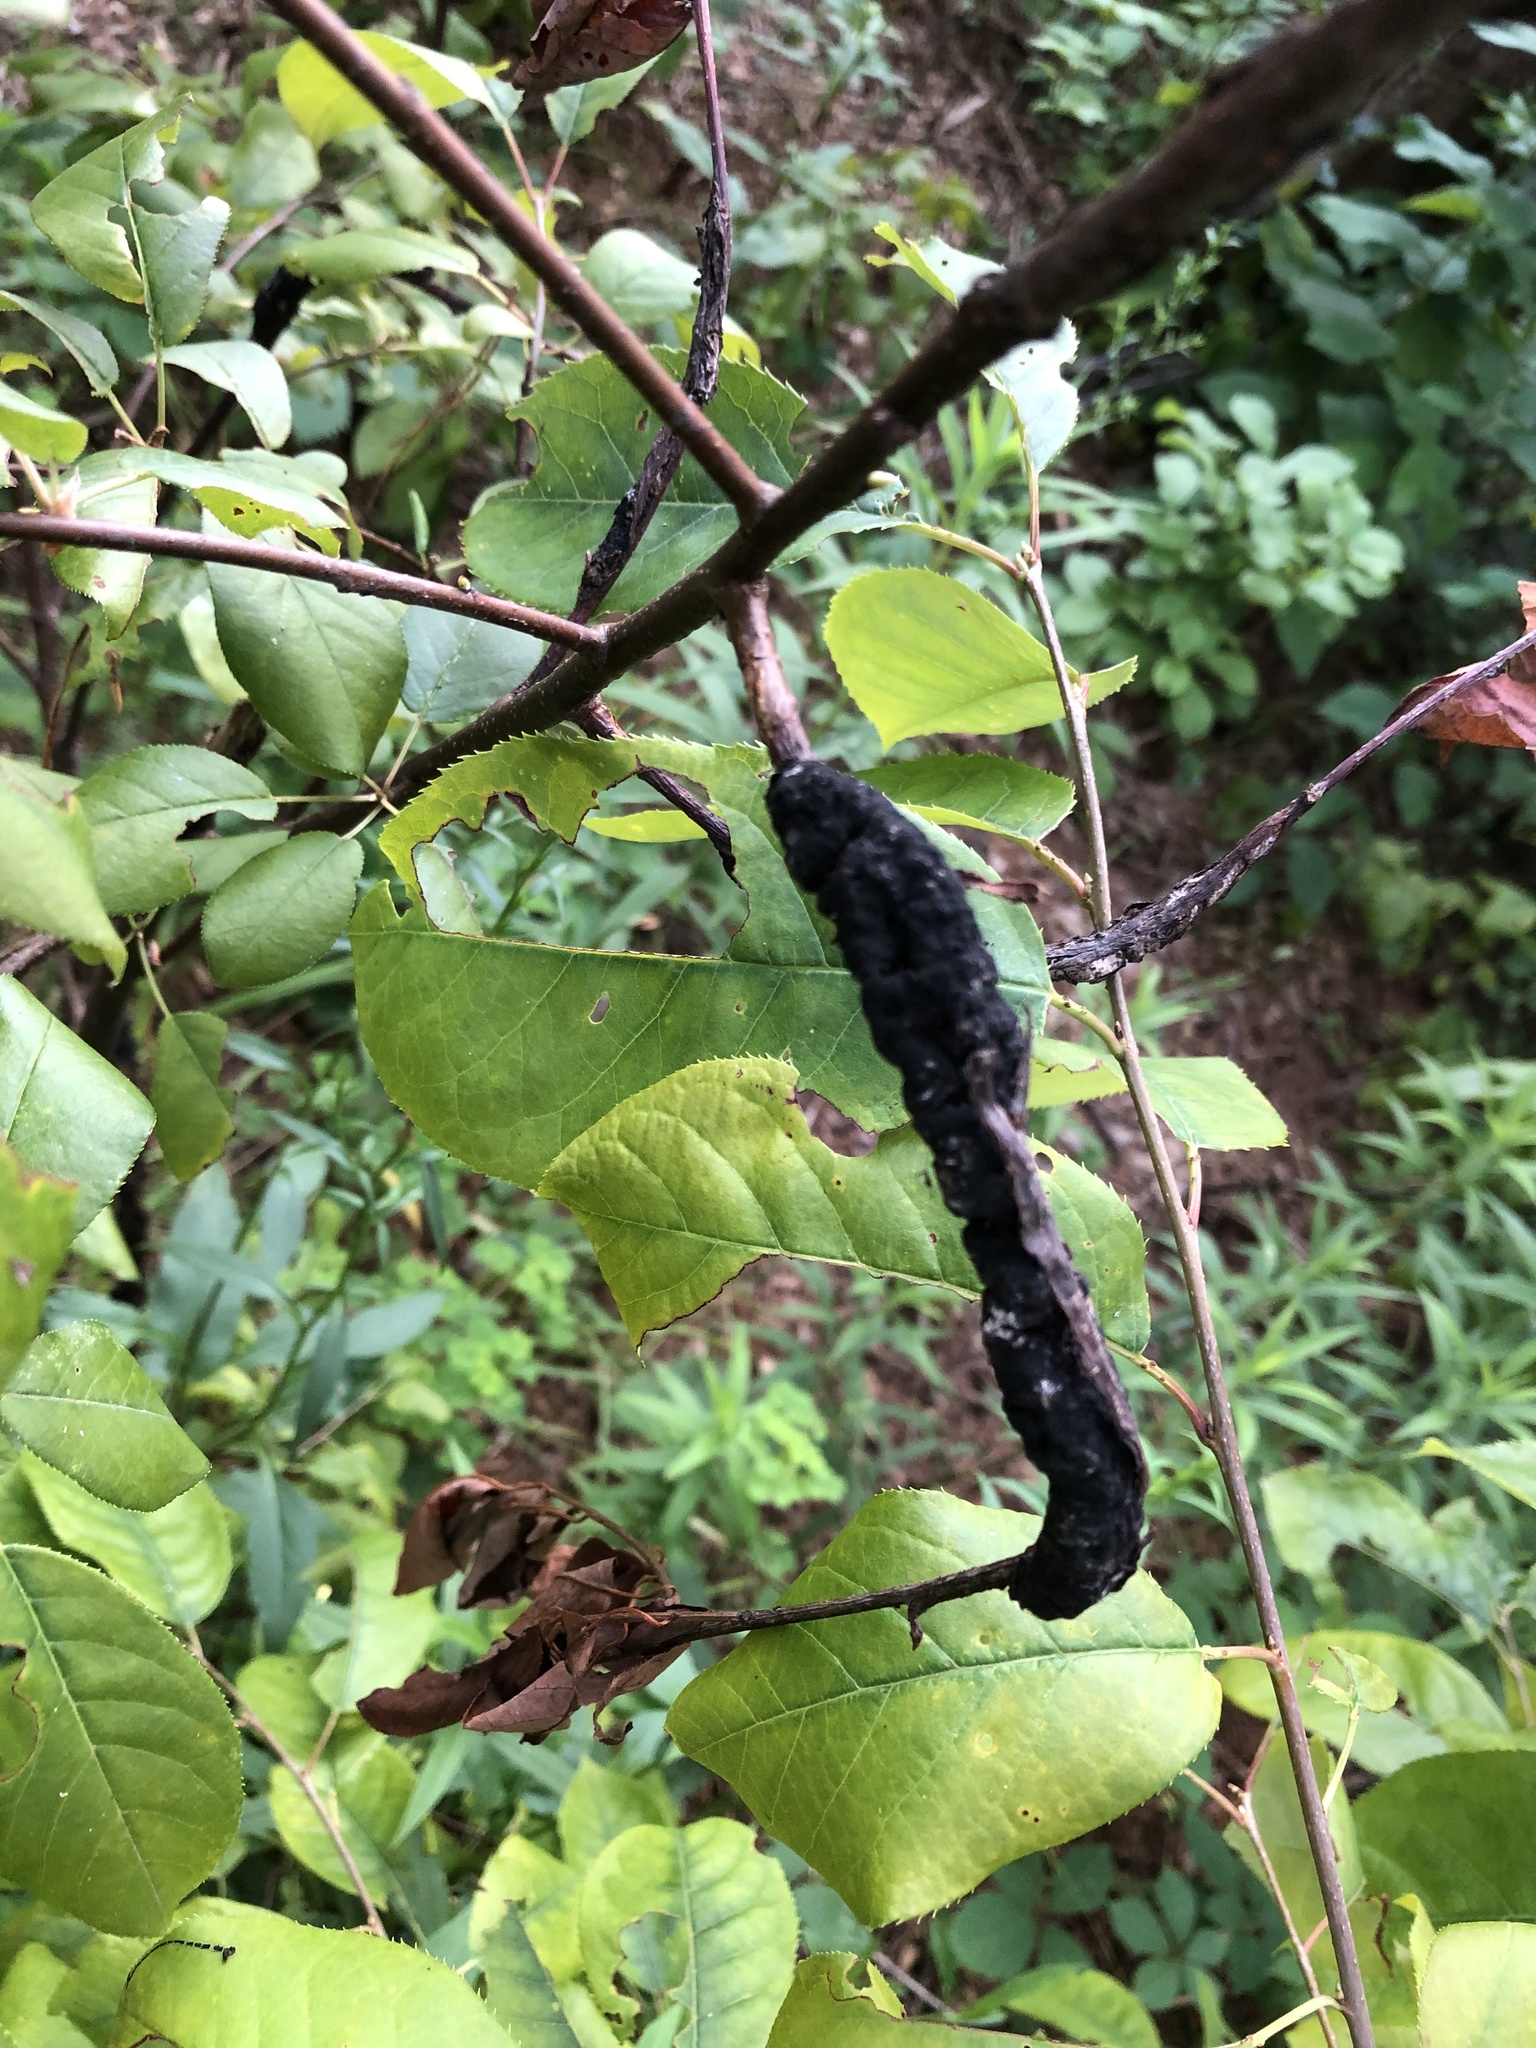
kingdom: Fungi
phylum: Ascomycota
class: Dothideomycetes
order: Venturiales
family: Venturiaceae
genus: Apiosporina
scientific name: Apiosporina morbosa
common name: Black knot
